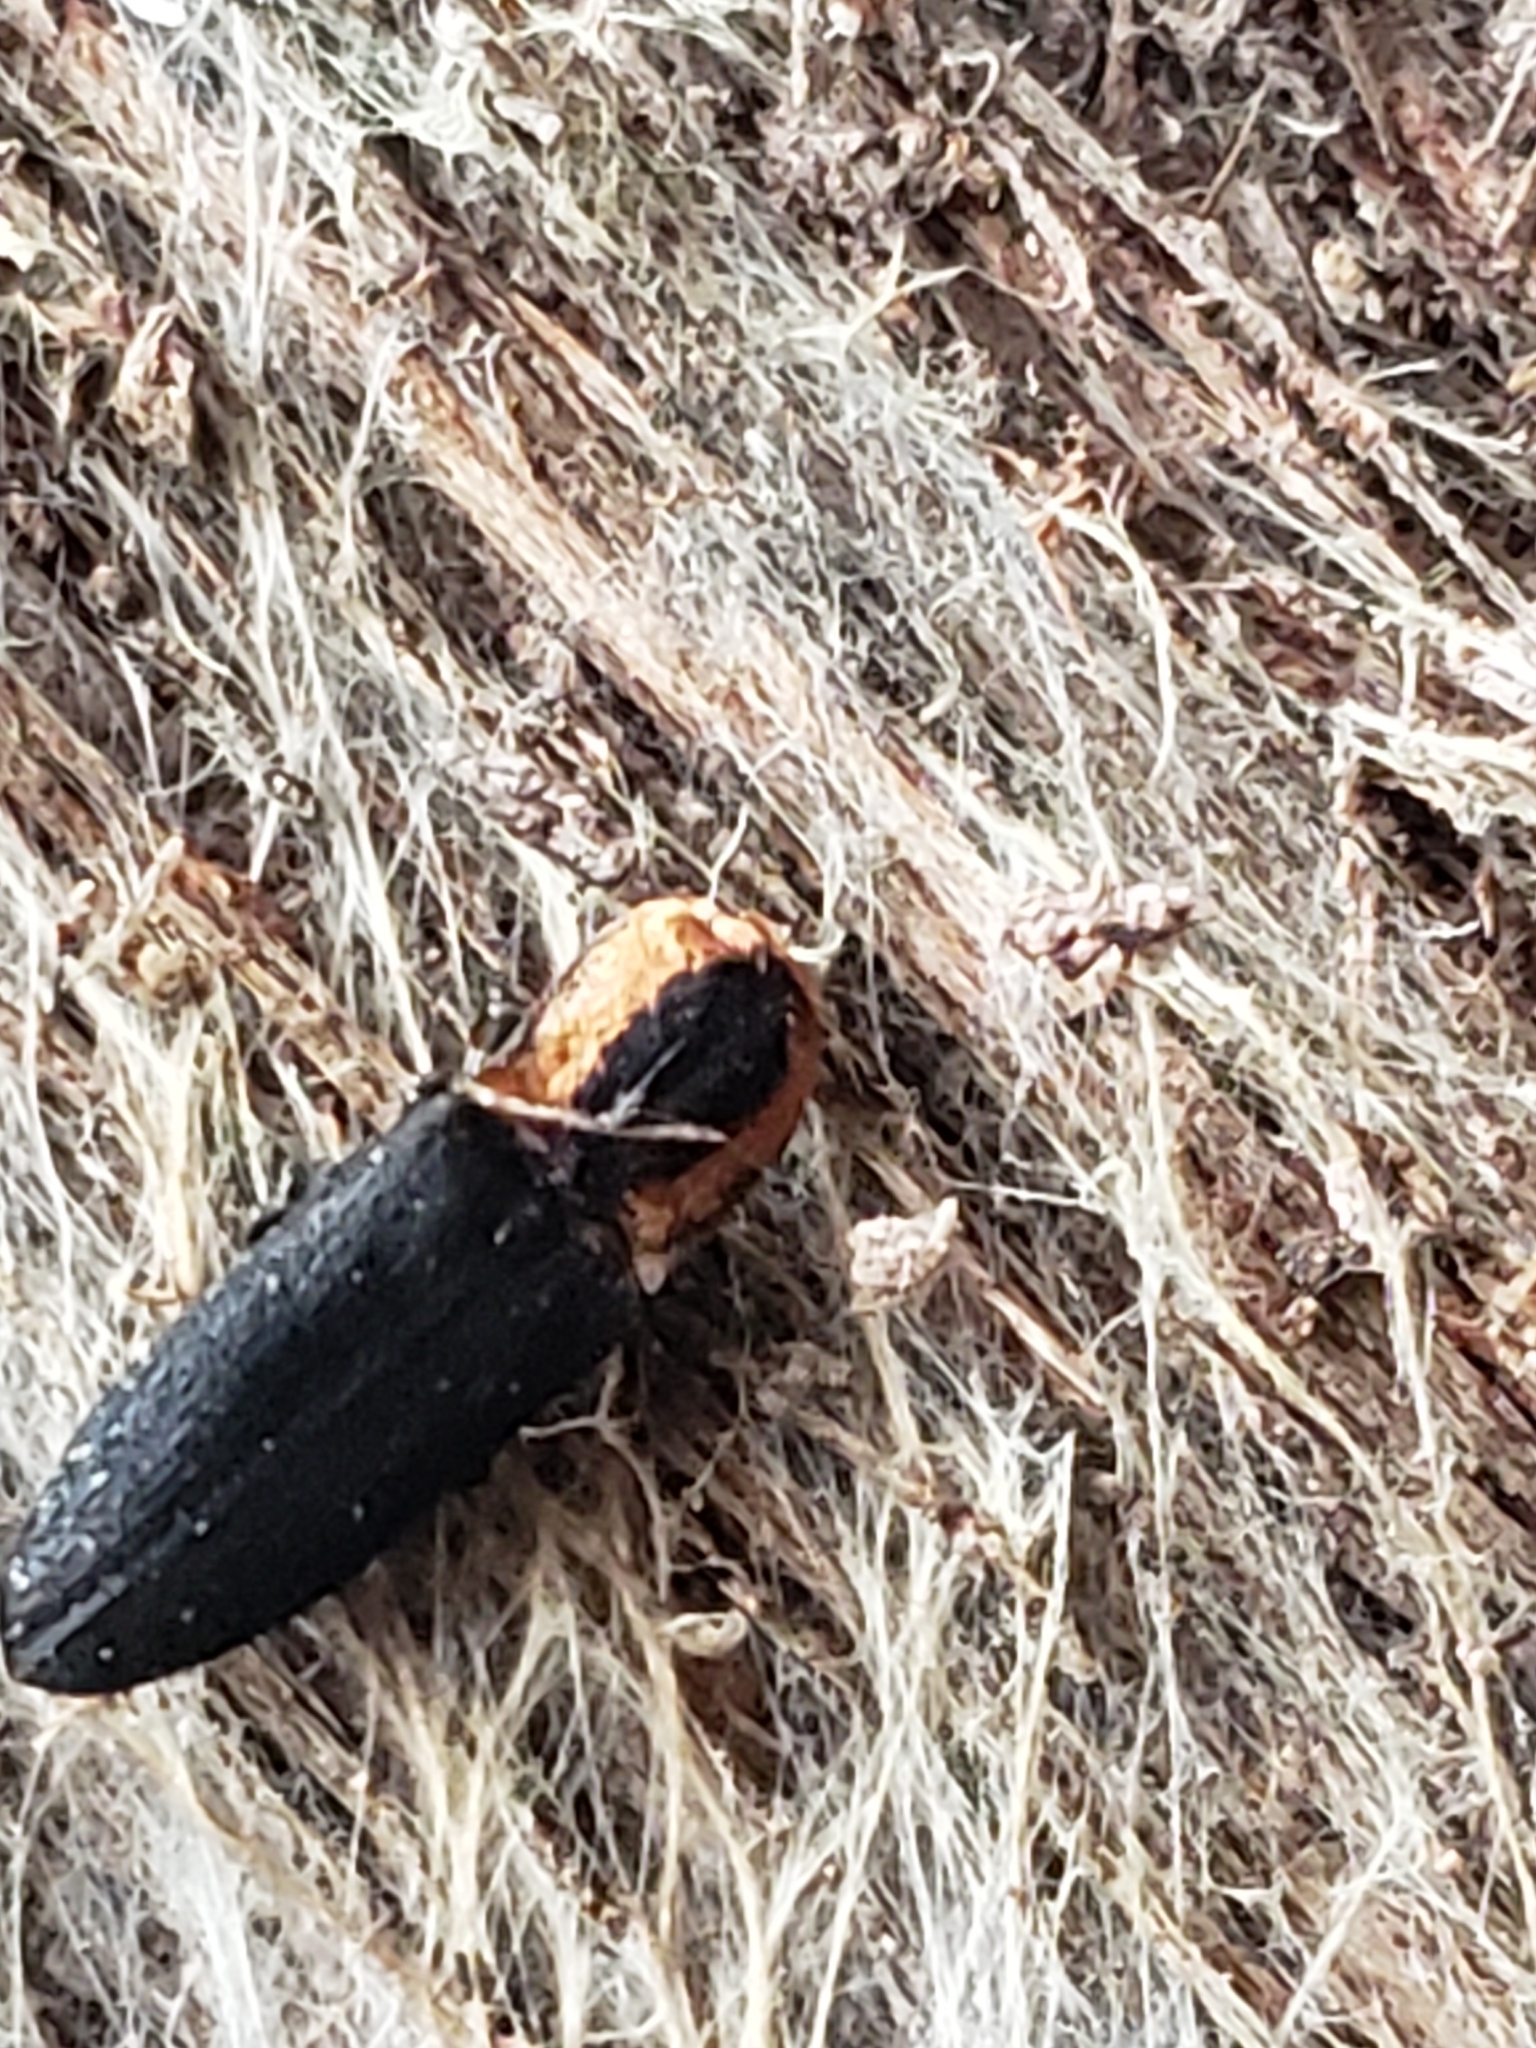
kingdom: Animalia
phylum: Arthropoda
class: Insecta
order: Coleoptera
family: Elateridae
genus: Lacon
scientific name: Lacon discoideus
